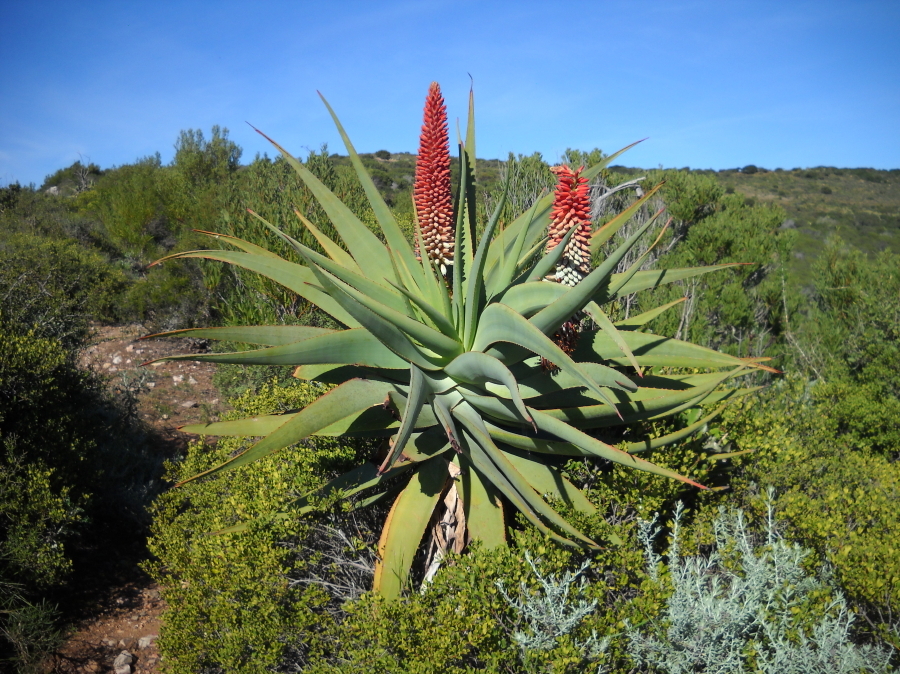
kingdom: Plantae
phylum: Tracheophyta
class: Liliopsida
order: Asparagales
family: Asphodelaceae
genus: Aloe
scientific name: Aloe speciosa
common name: Beautiful aloe
